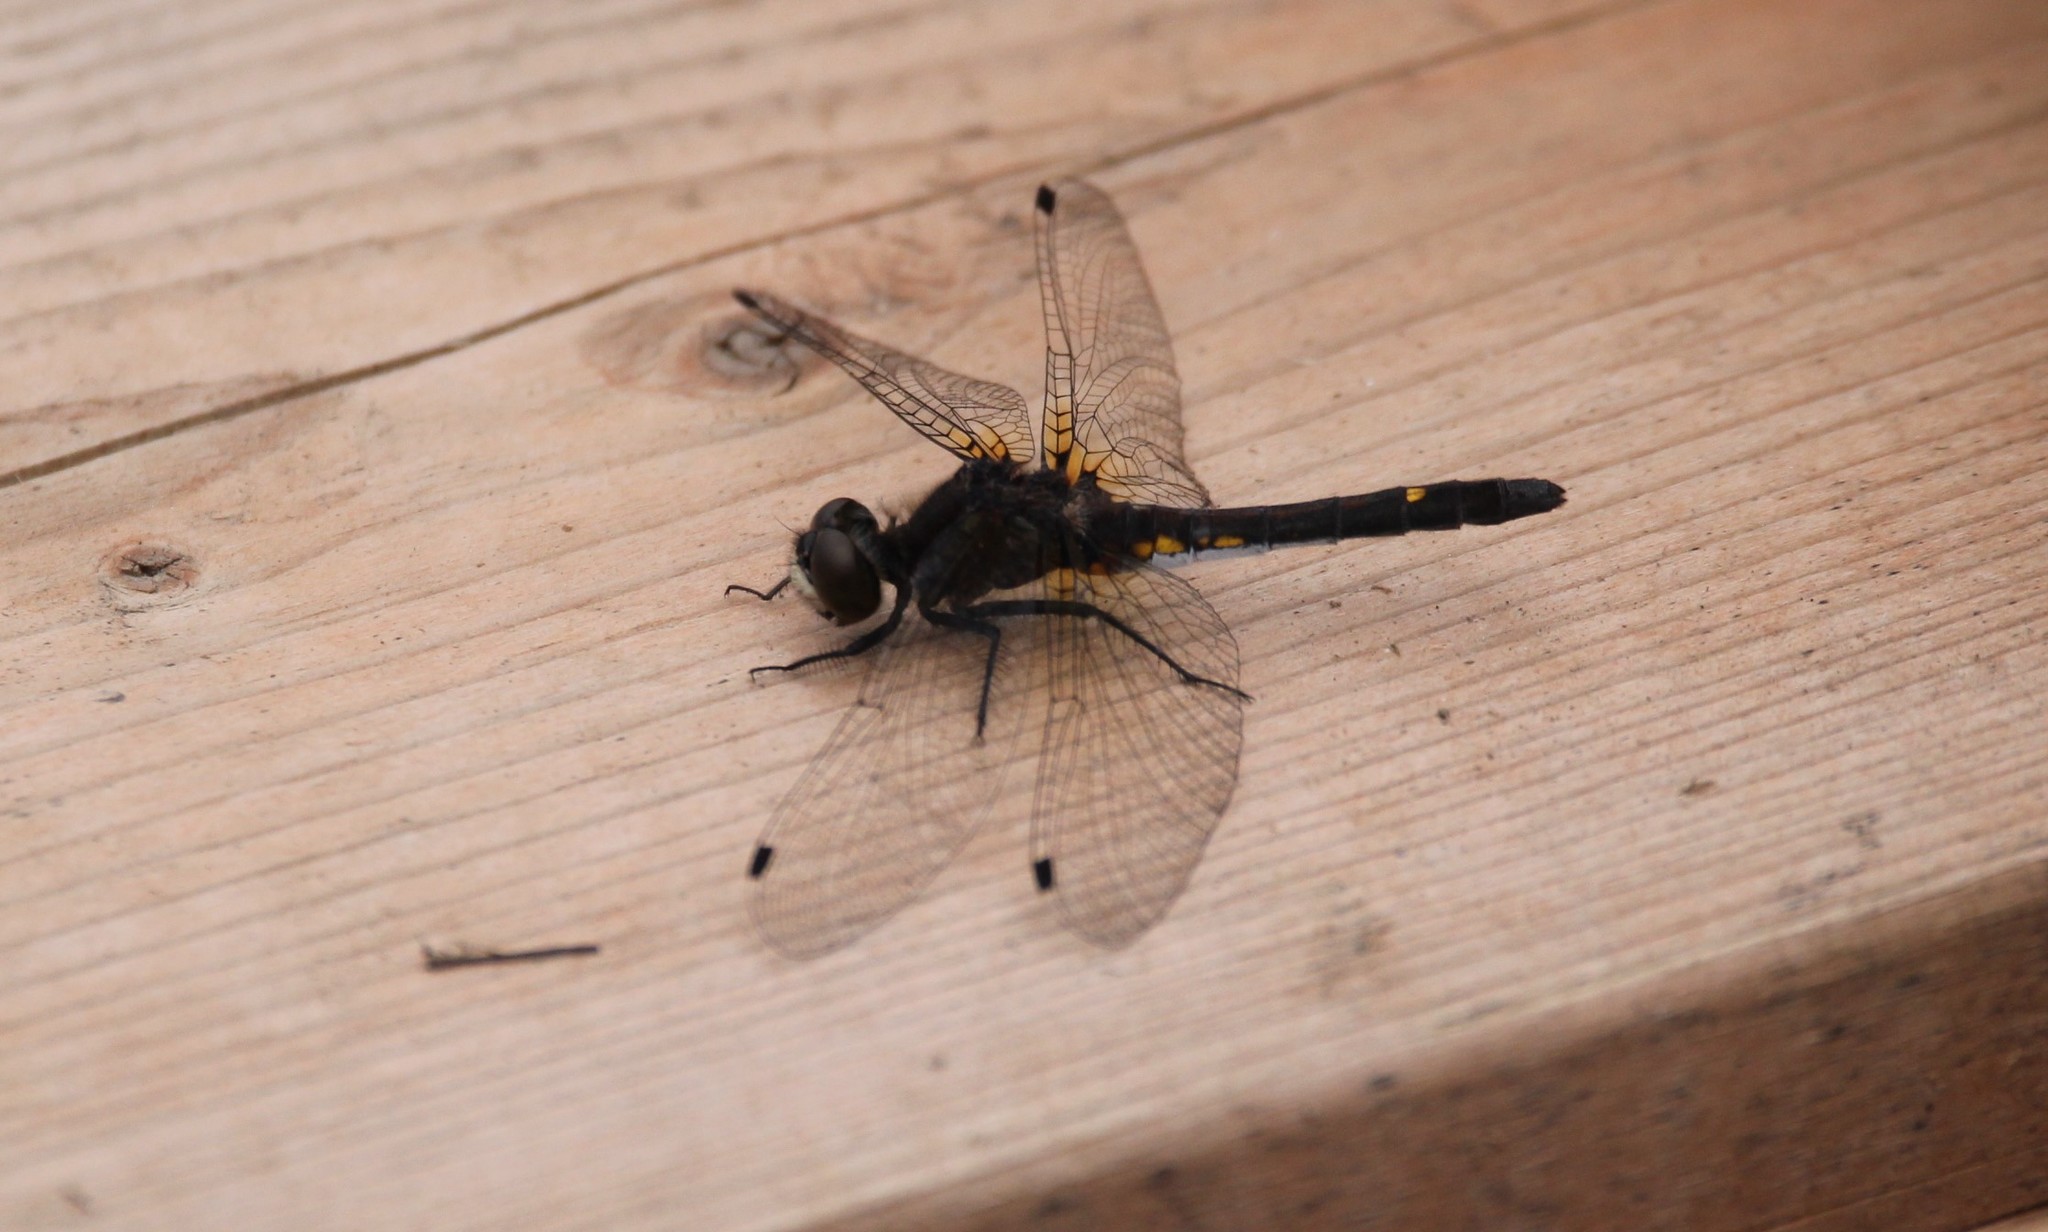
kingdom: Animalia
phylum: Arthropoda
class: Insecta
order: Odonata
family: Libellulidae
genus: Leucorrhinia
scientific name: Leucorrhinia intacta
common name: Dot-tailed whiteface
